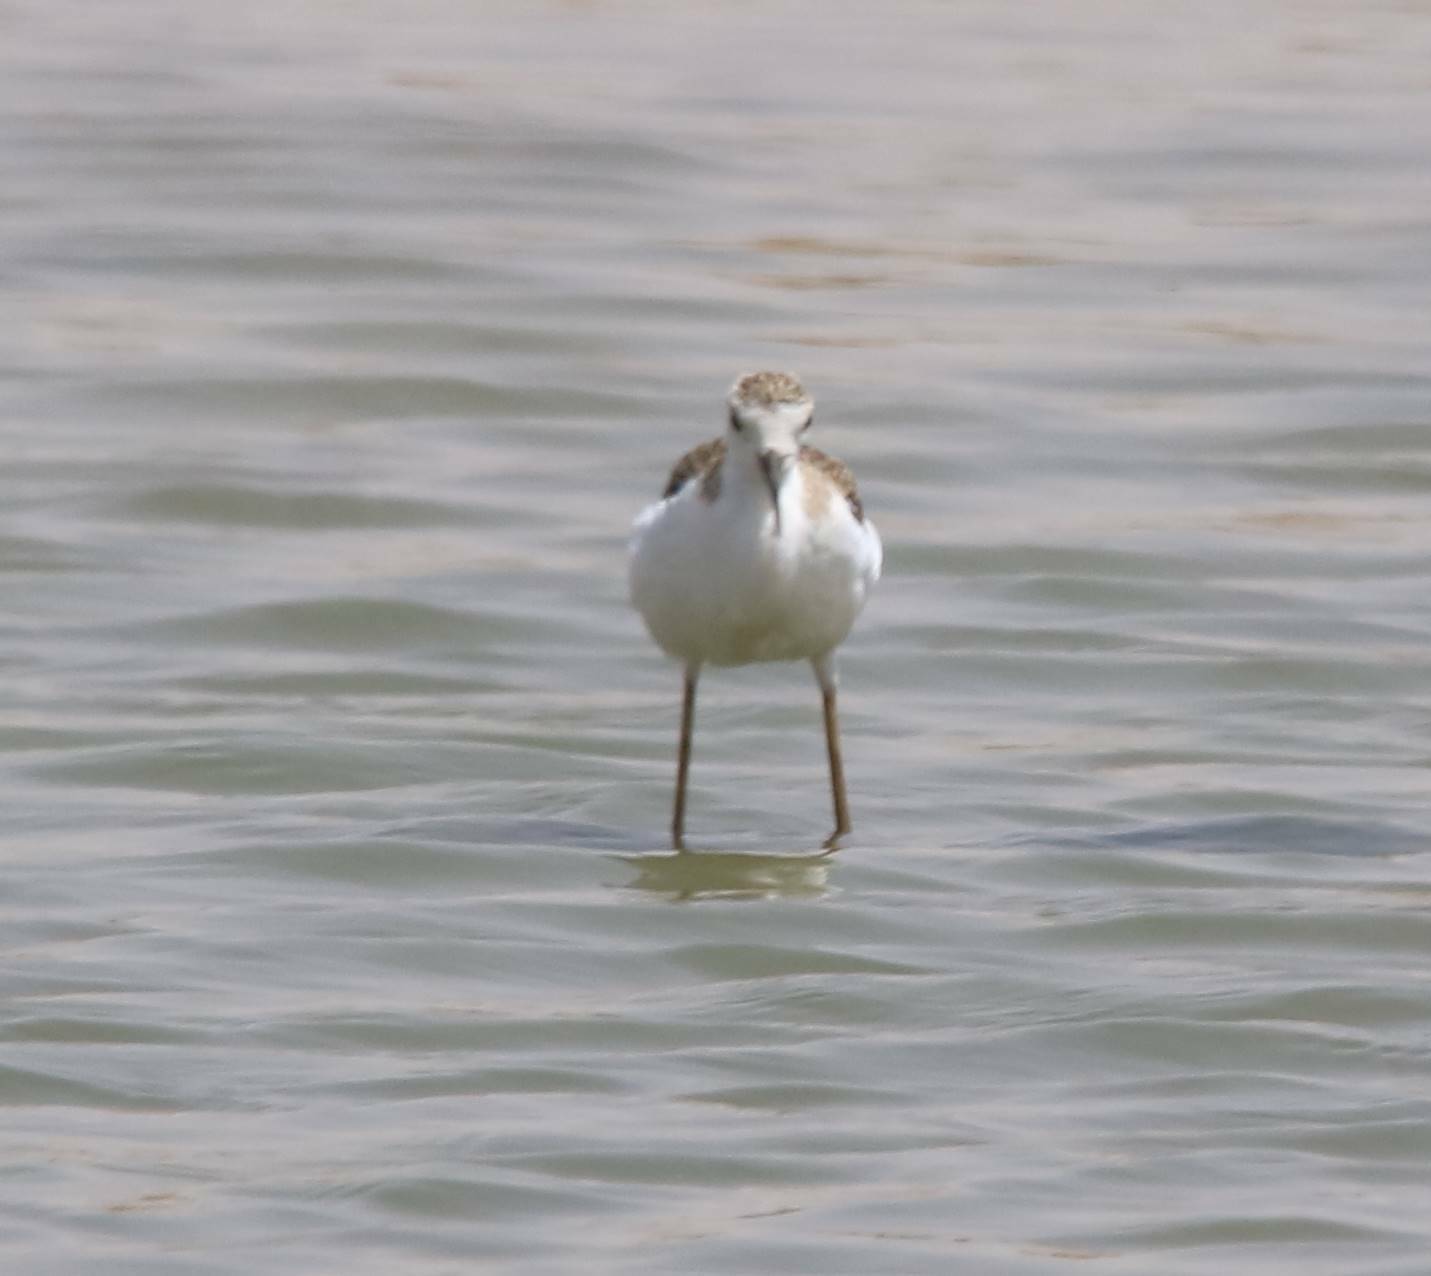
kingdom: Animalia
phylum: Chordata
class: Aves
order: Charadriiformes
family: Recurvirostridae
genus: Himantopus
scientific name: Himantopus himantopus
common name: Black-winged stilt
